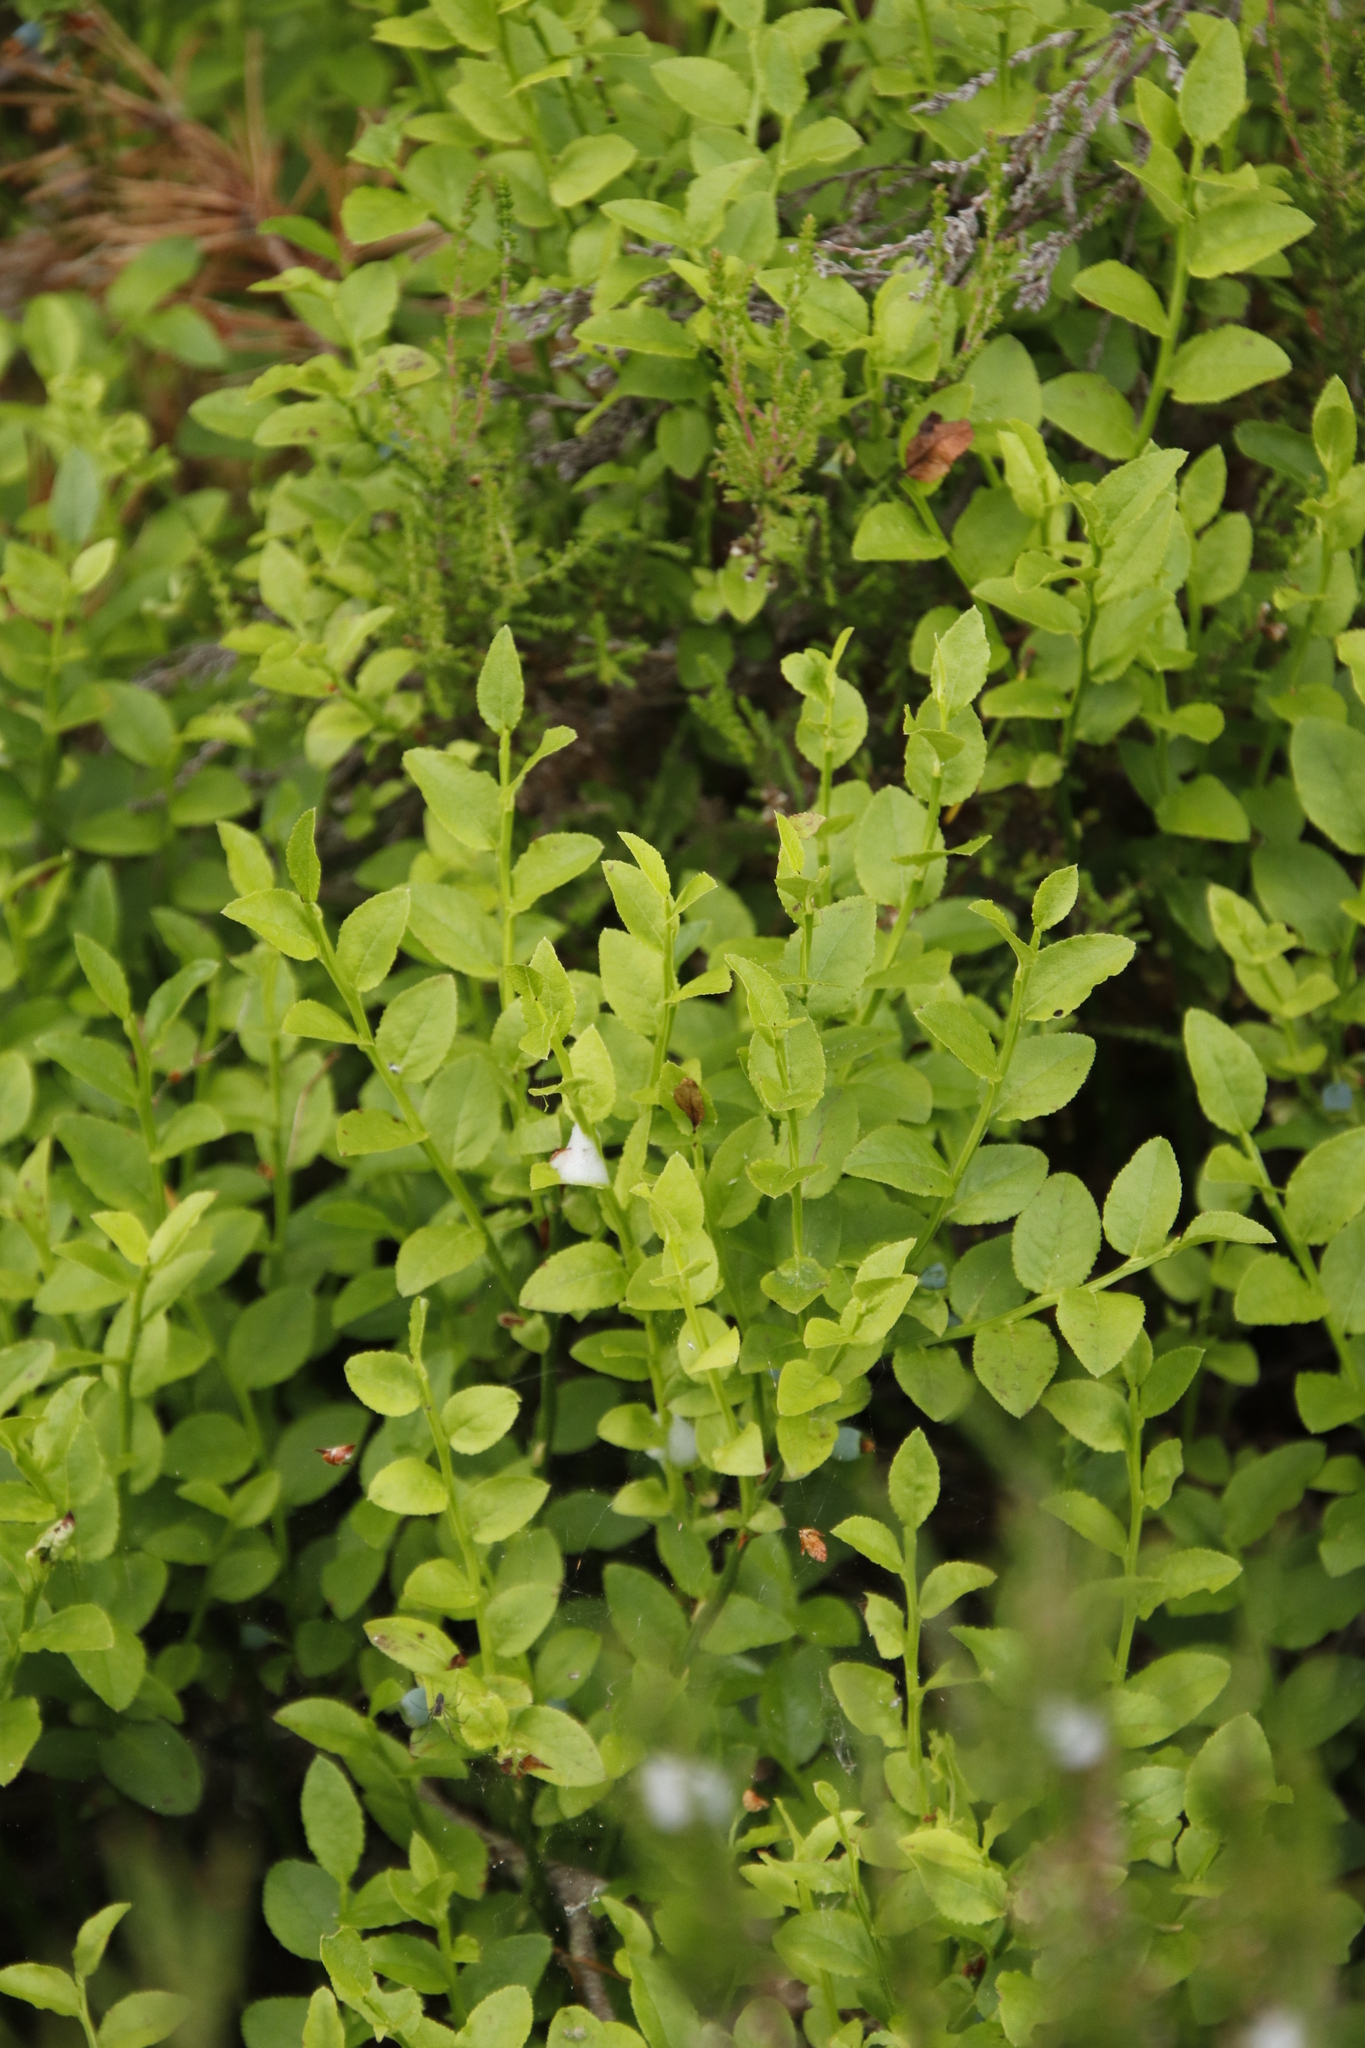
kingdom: Plantae
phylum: Tracheophyta
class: Magnoliopsida
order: Ericales
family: Ericaceae
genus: Vaccinium
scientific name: Vaccinium myrtillus
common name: Bilberry
